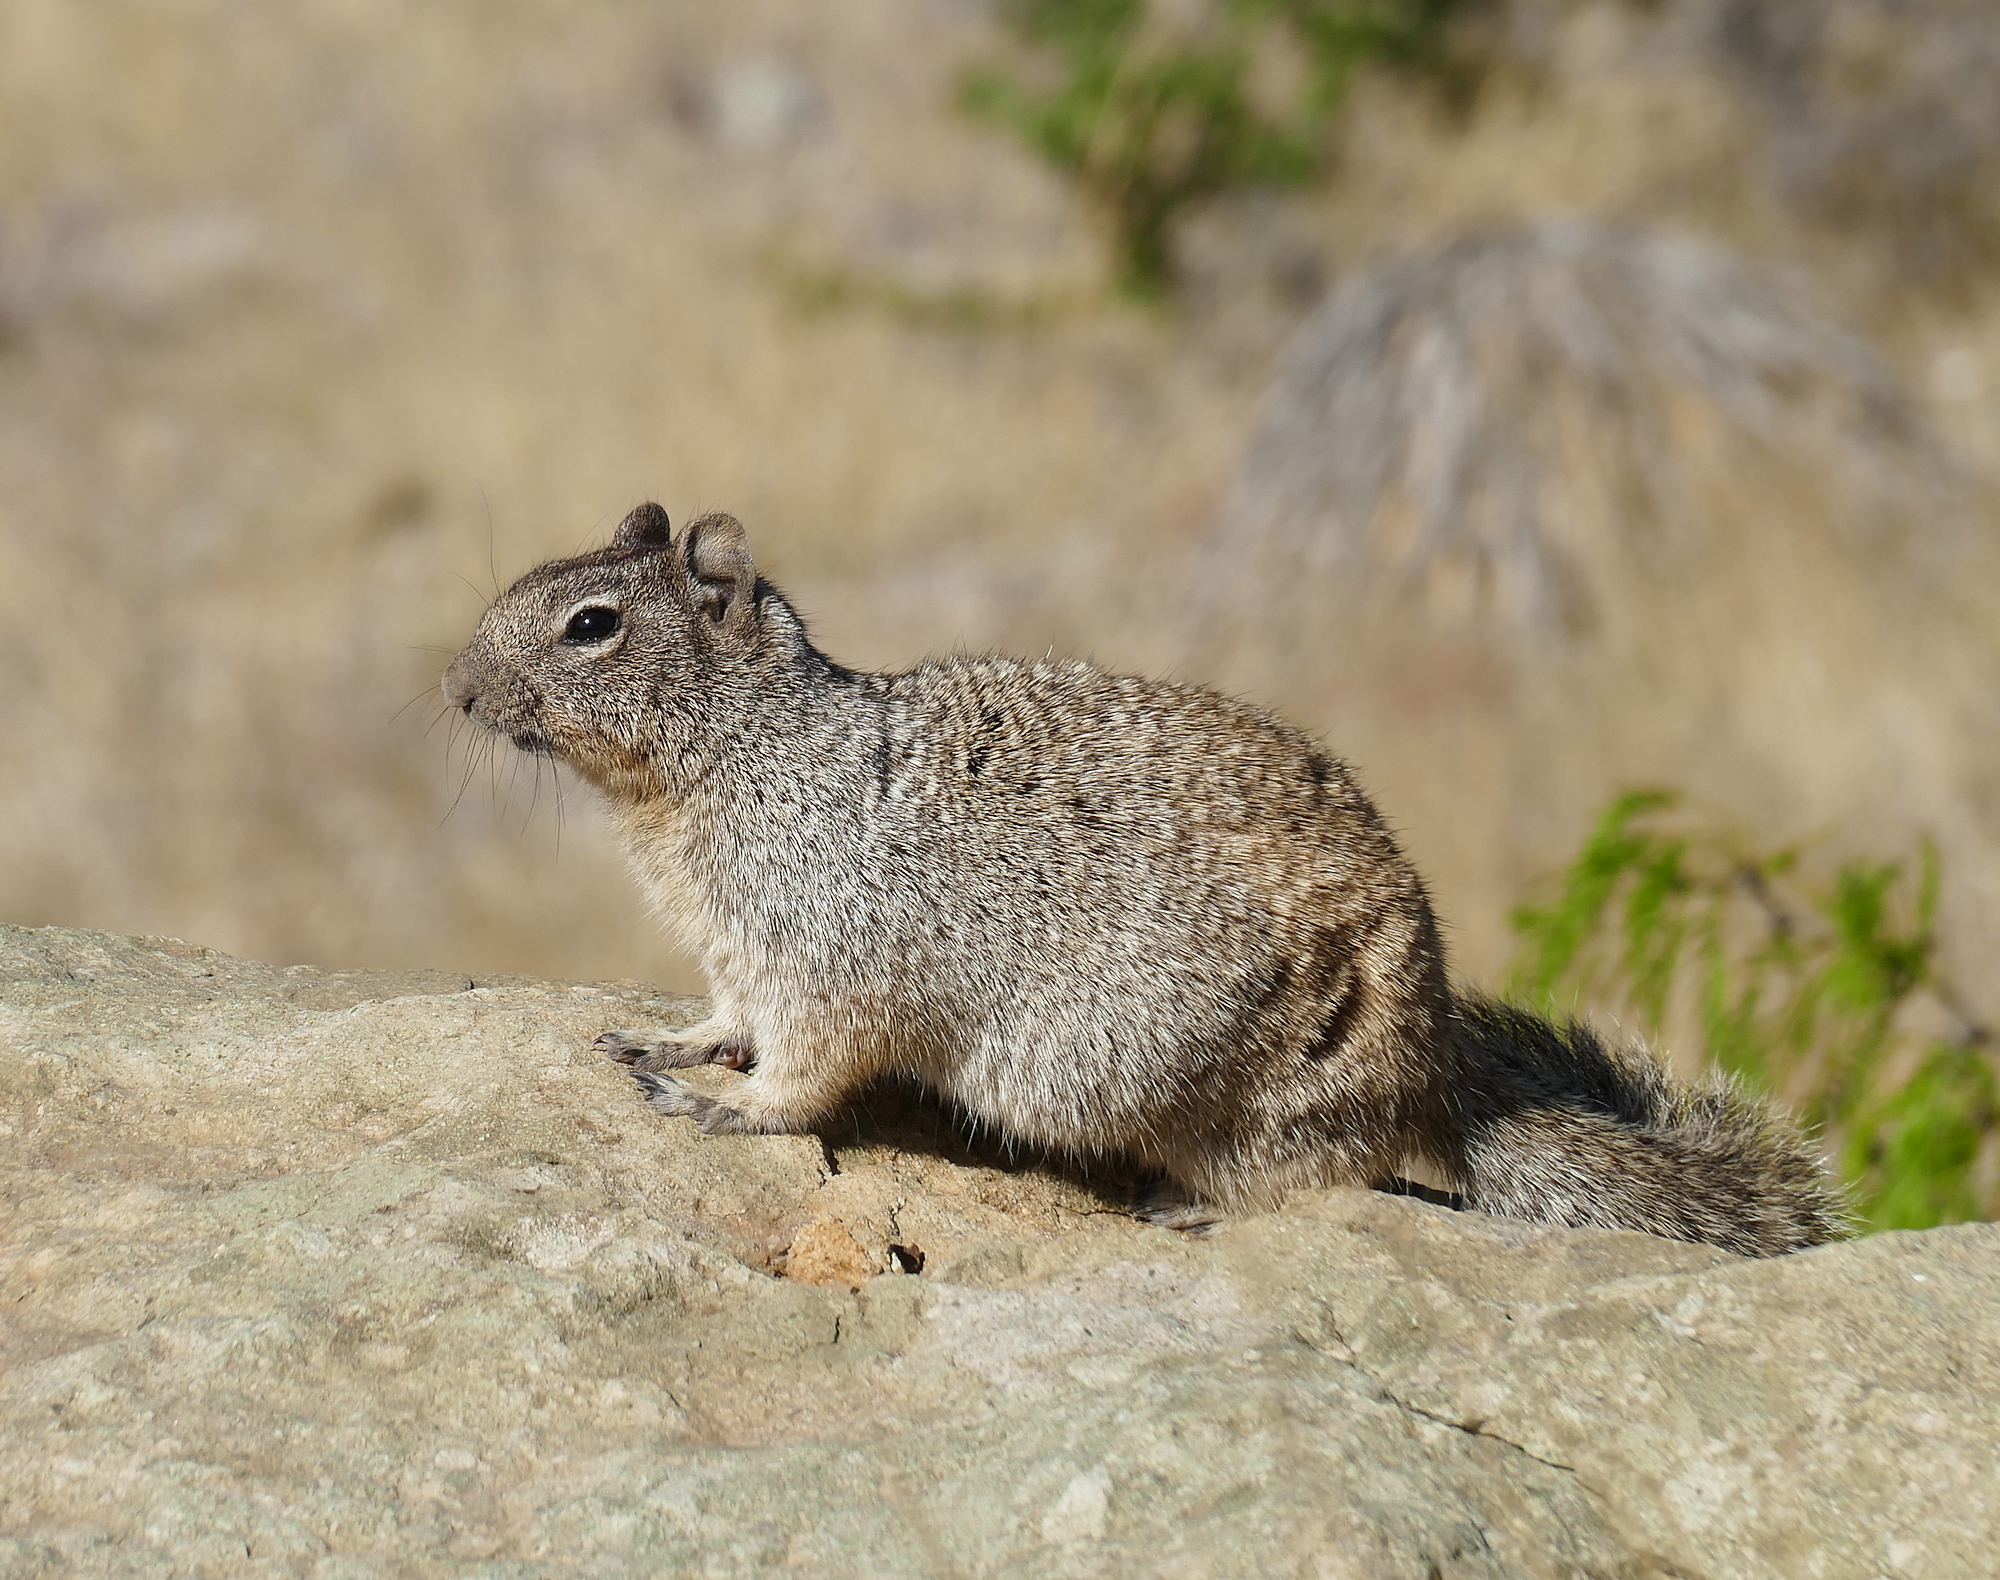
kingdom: Animalia
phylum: Chordata
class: Mammalia
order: Rodentia
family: Sciuridae
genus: Otospermophilus
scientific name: Otospermophilus variegatus
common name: Rock squirrel
